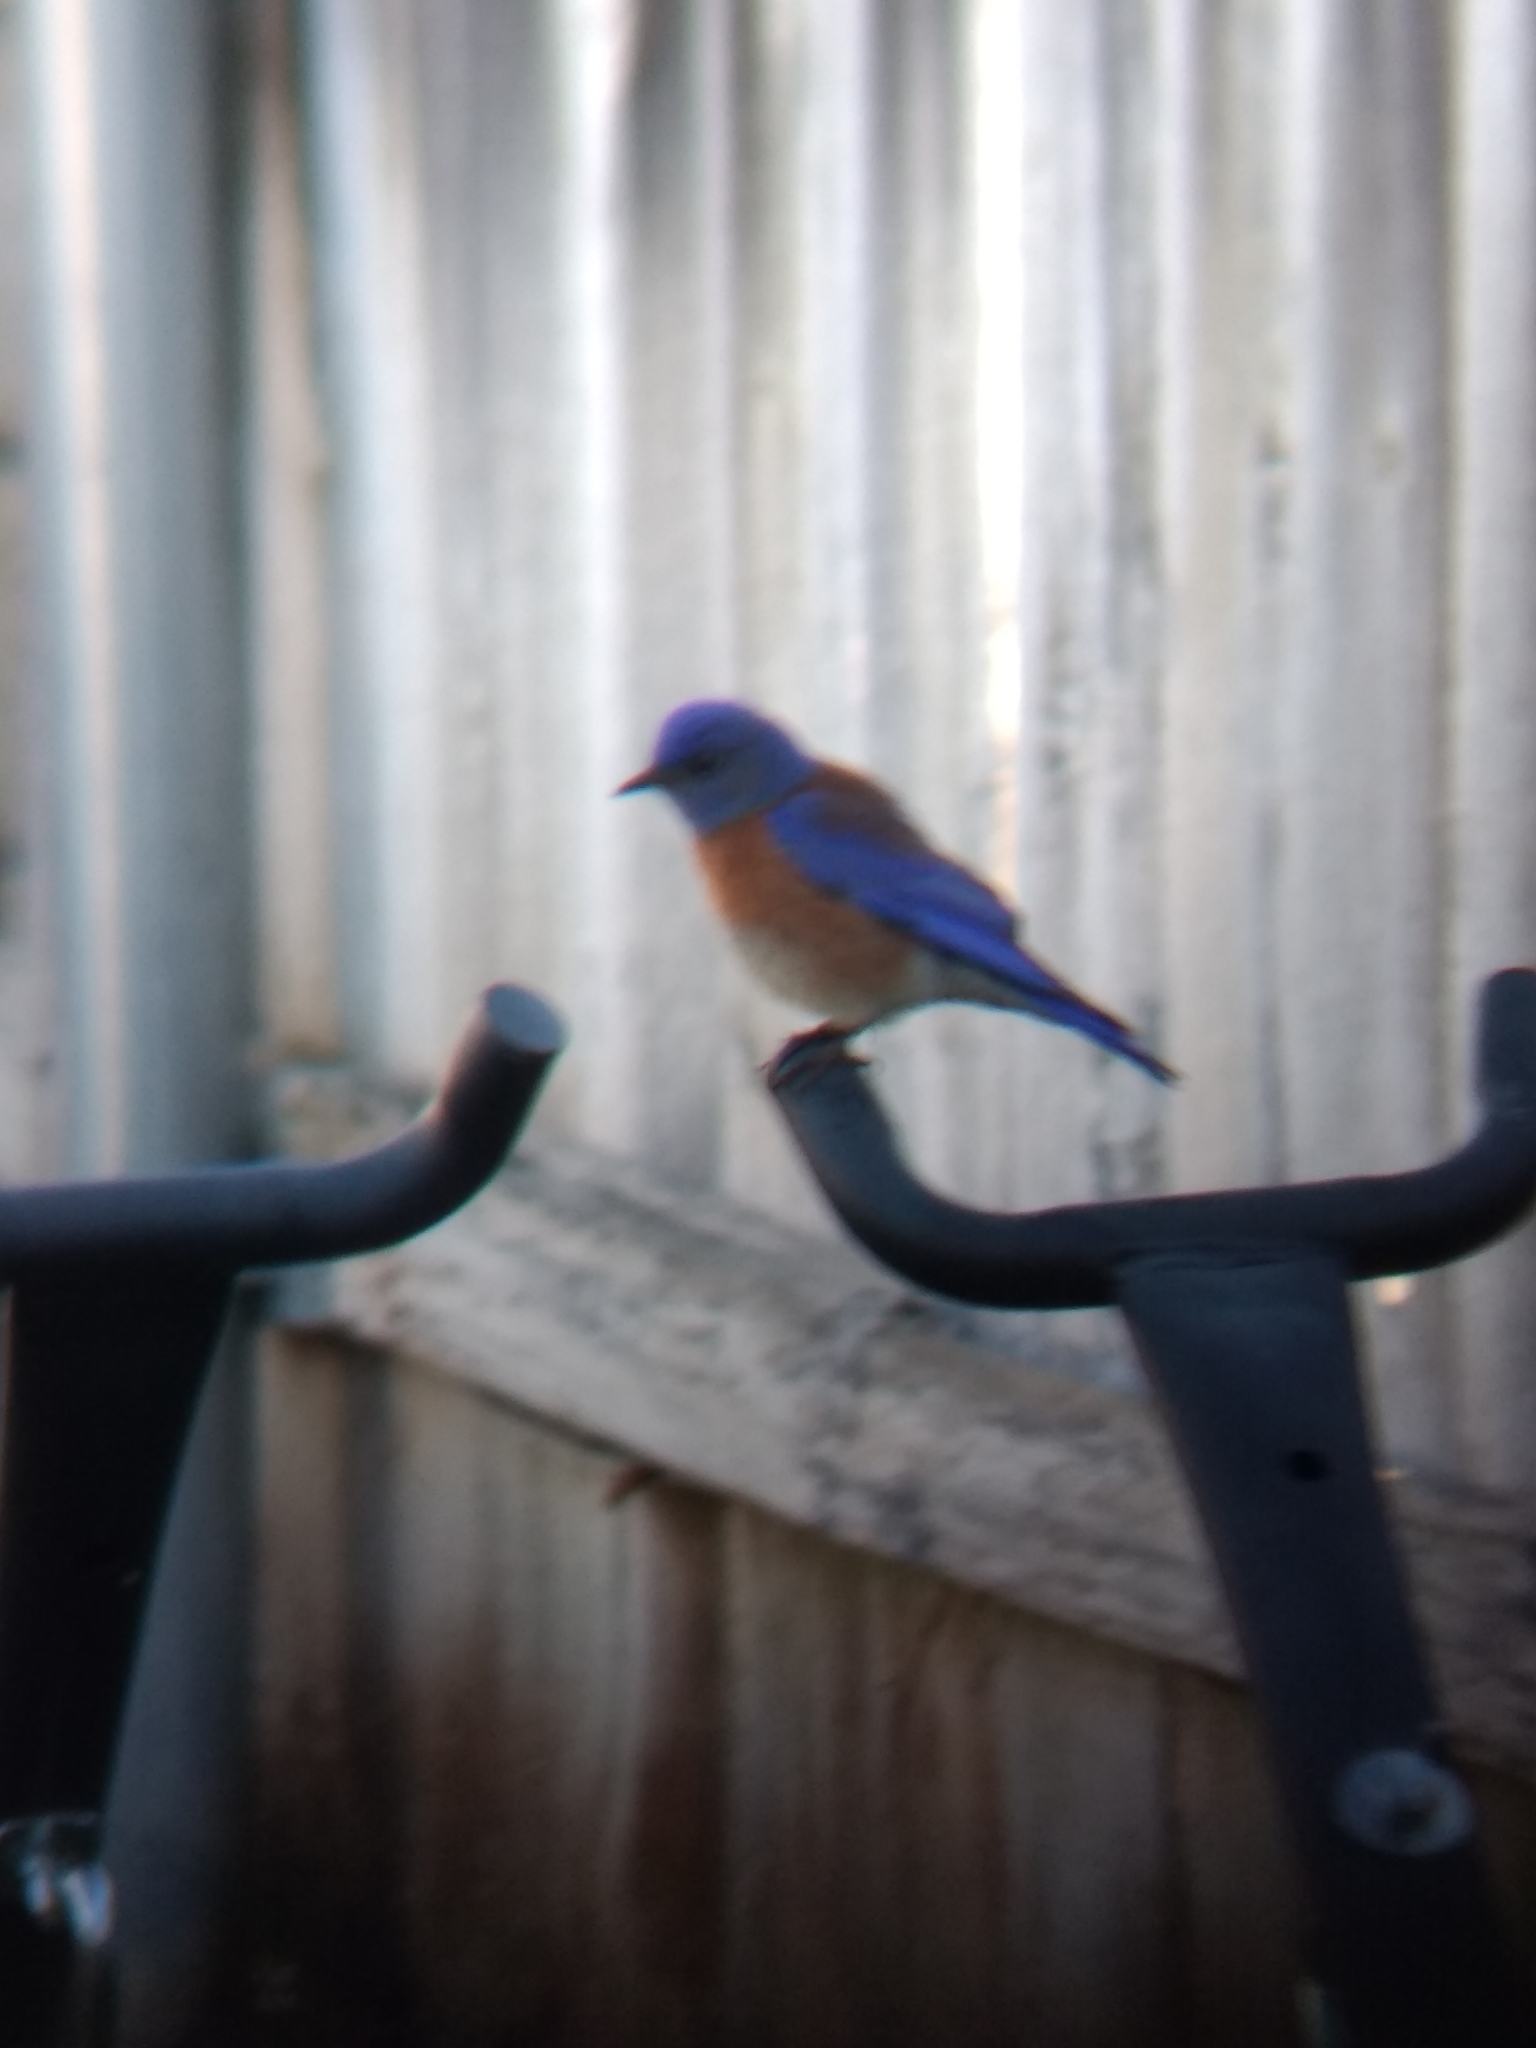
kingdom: Animalia
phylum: Chordata
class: Aves
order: Passeriformes
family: Turdidae
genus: Sialia
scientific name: Sialia mexicana
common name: Western bluebird
